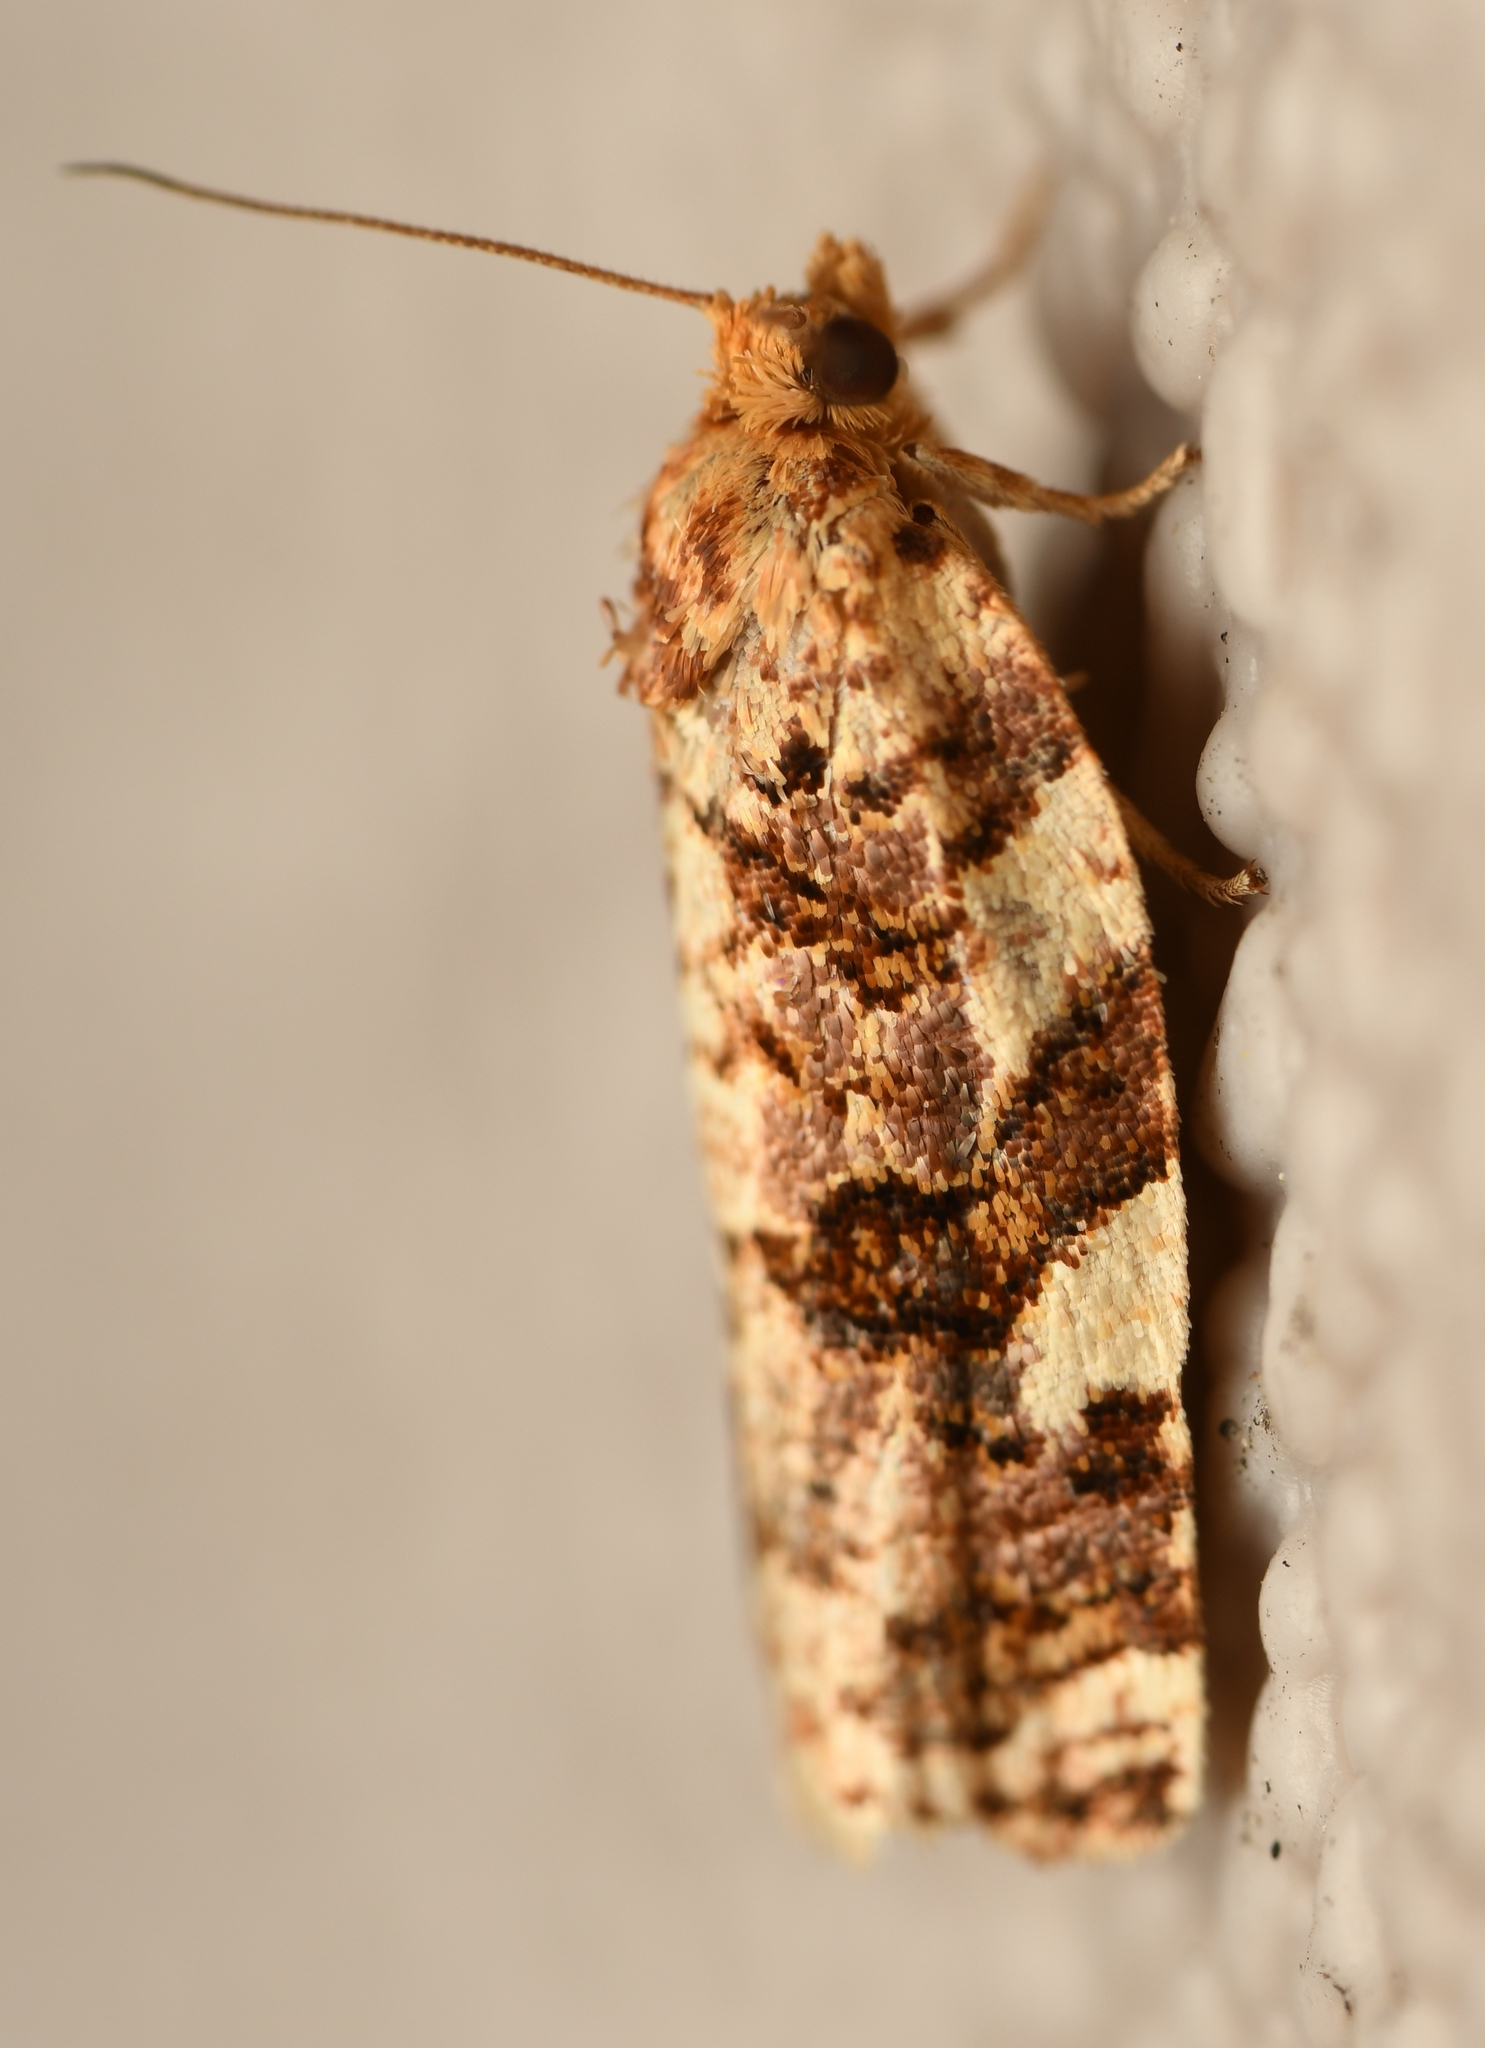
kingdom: Animalia
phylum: Arthropoda
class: Insecta
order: Lepidoptera
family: Tortricidae
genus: Archips
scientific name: Archips argyrospila
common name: Fruit-tree leafroller moth
